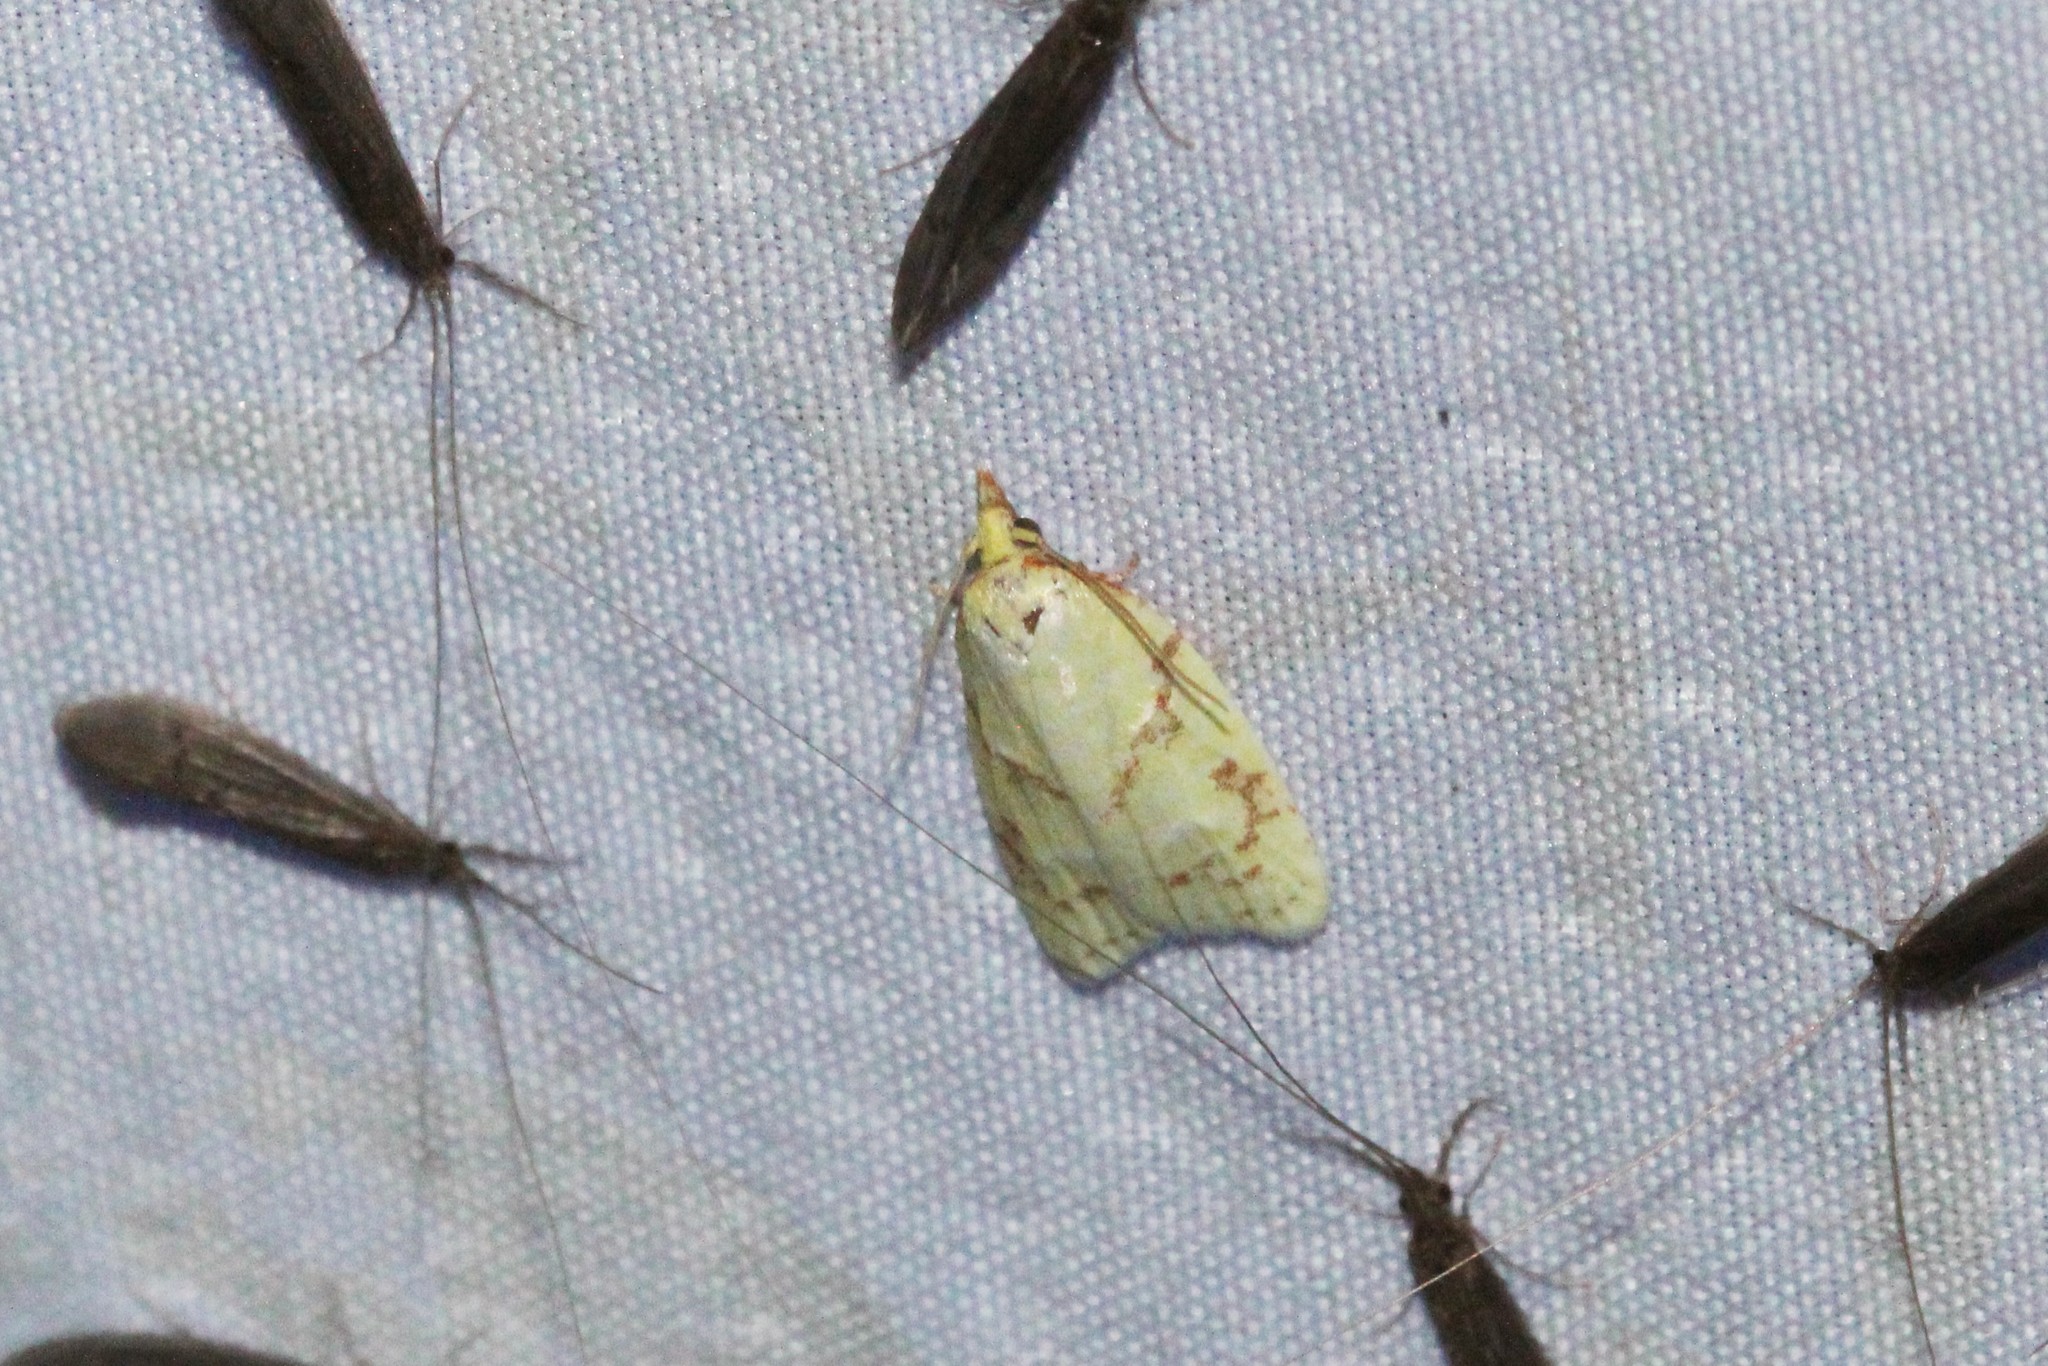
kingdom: Animalia
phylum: Arthropoda
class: Insecta
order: Lepidoptera
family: Tortricidae
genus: Cenopis
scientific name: Cenopis pettitana
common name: Maple-basswood leafroller moth
